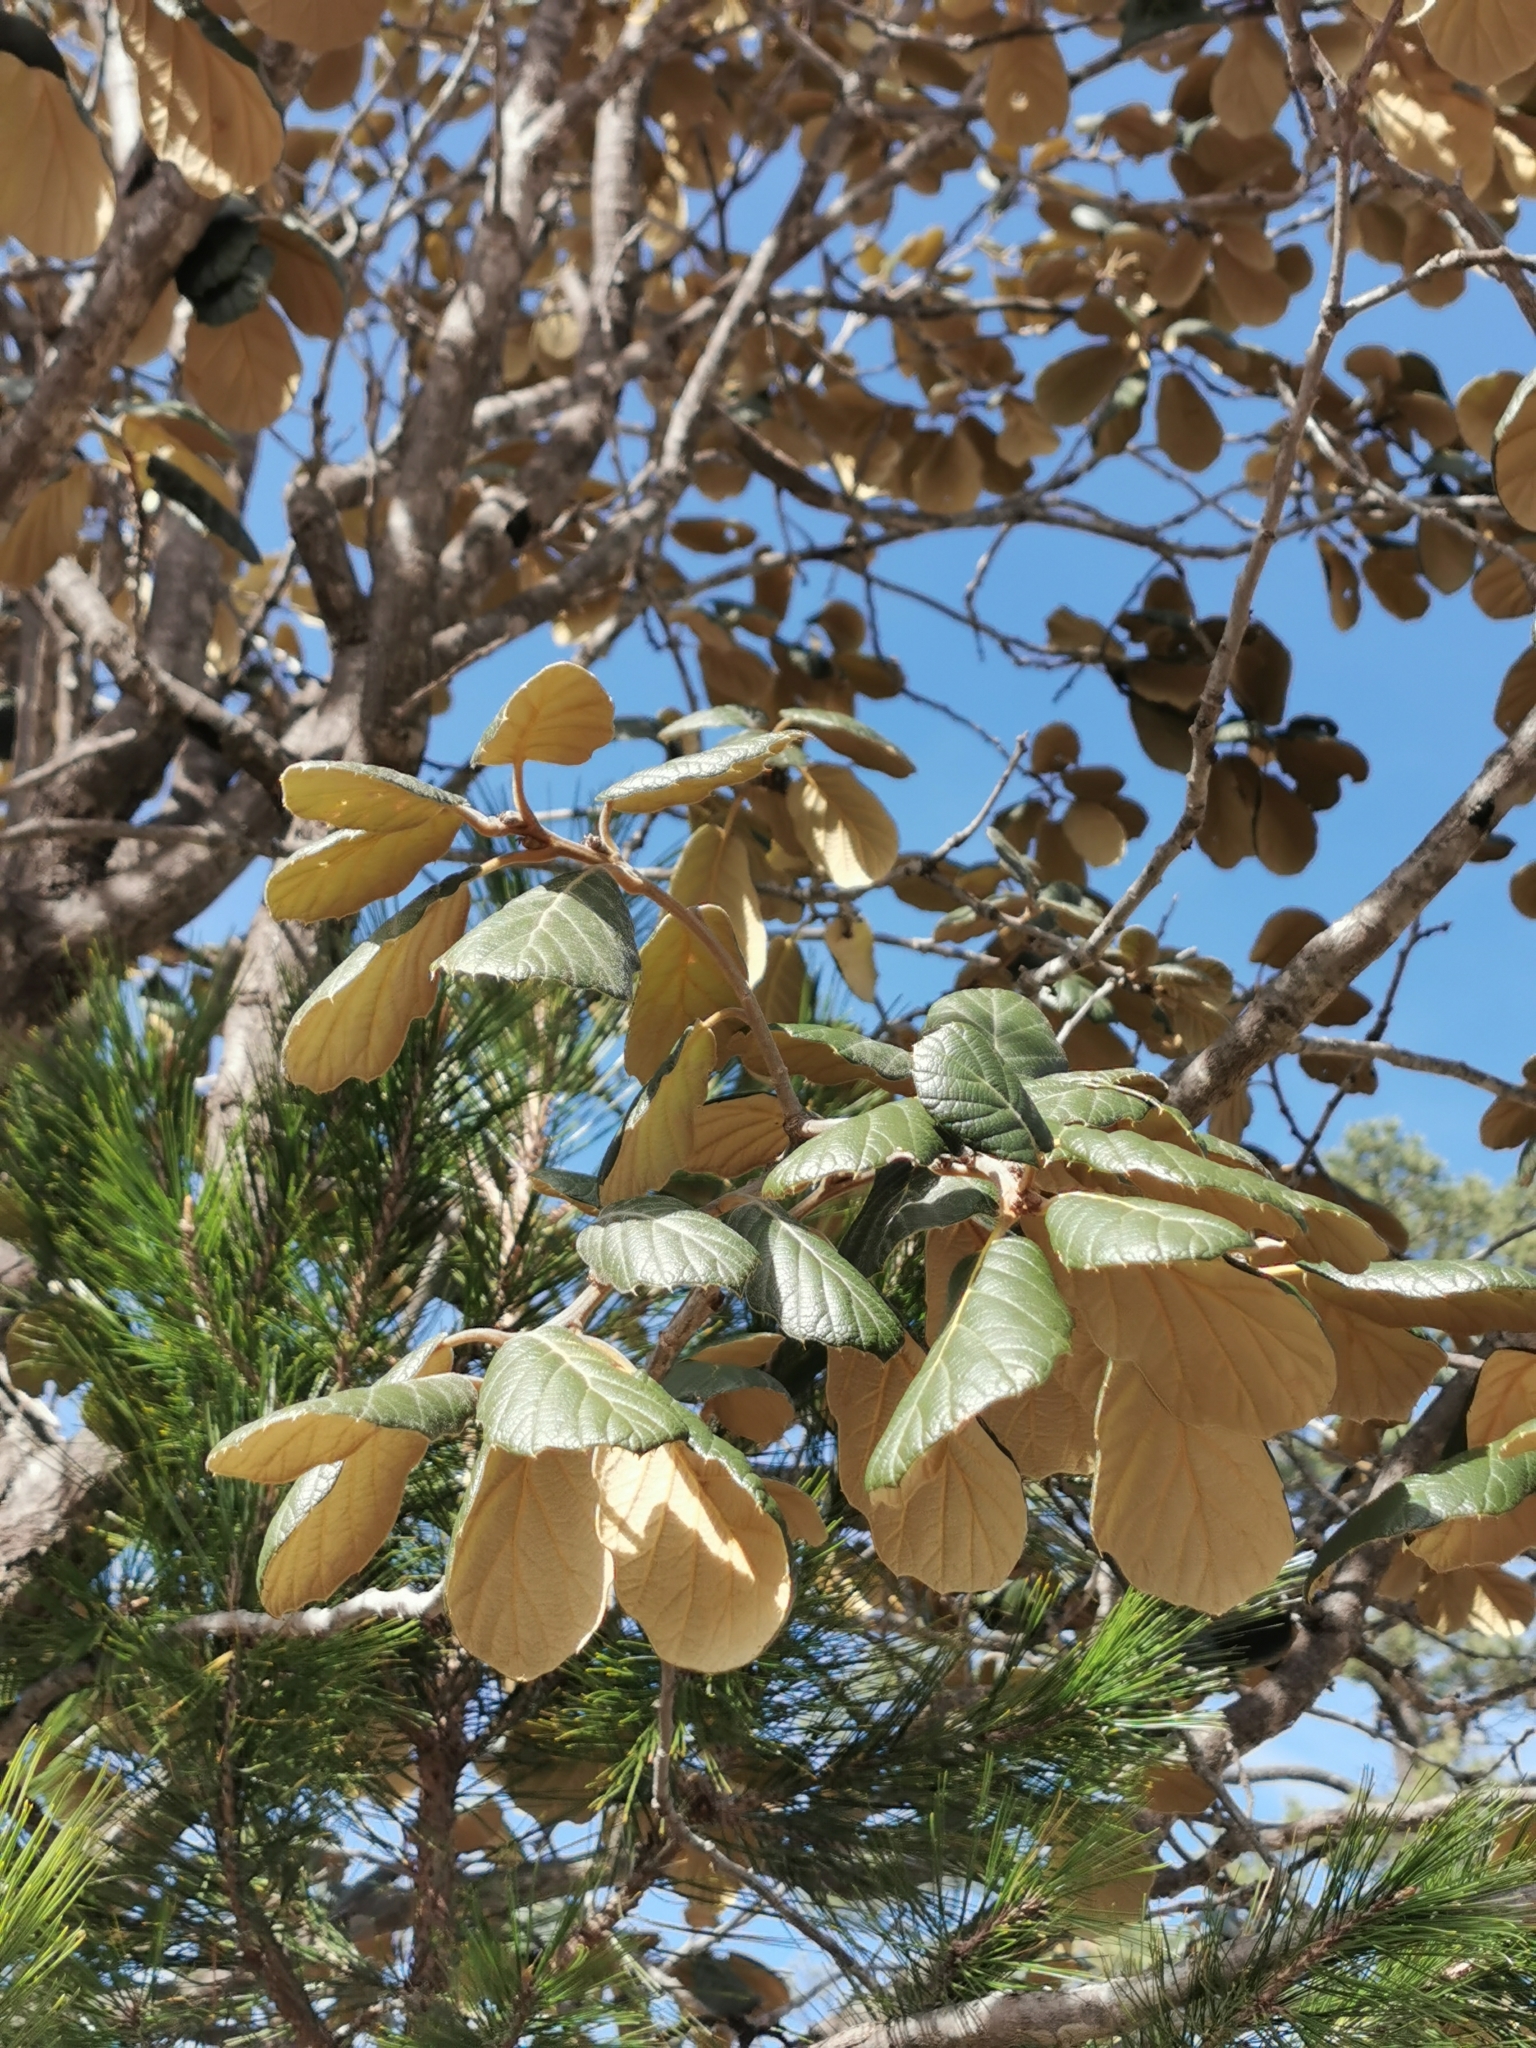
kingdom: Plantae
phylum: Tracheophyta
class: Magnoliopsida
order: Fagales
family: Fagaceae
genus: Quercus
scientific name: Quercus crassifolia
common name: Leather leaf mexican oak
